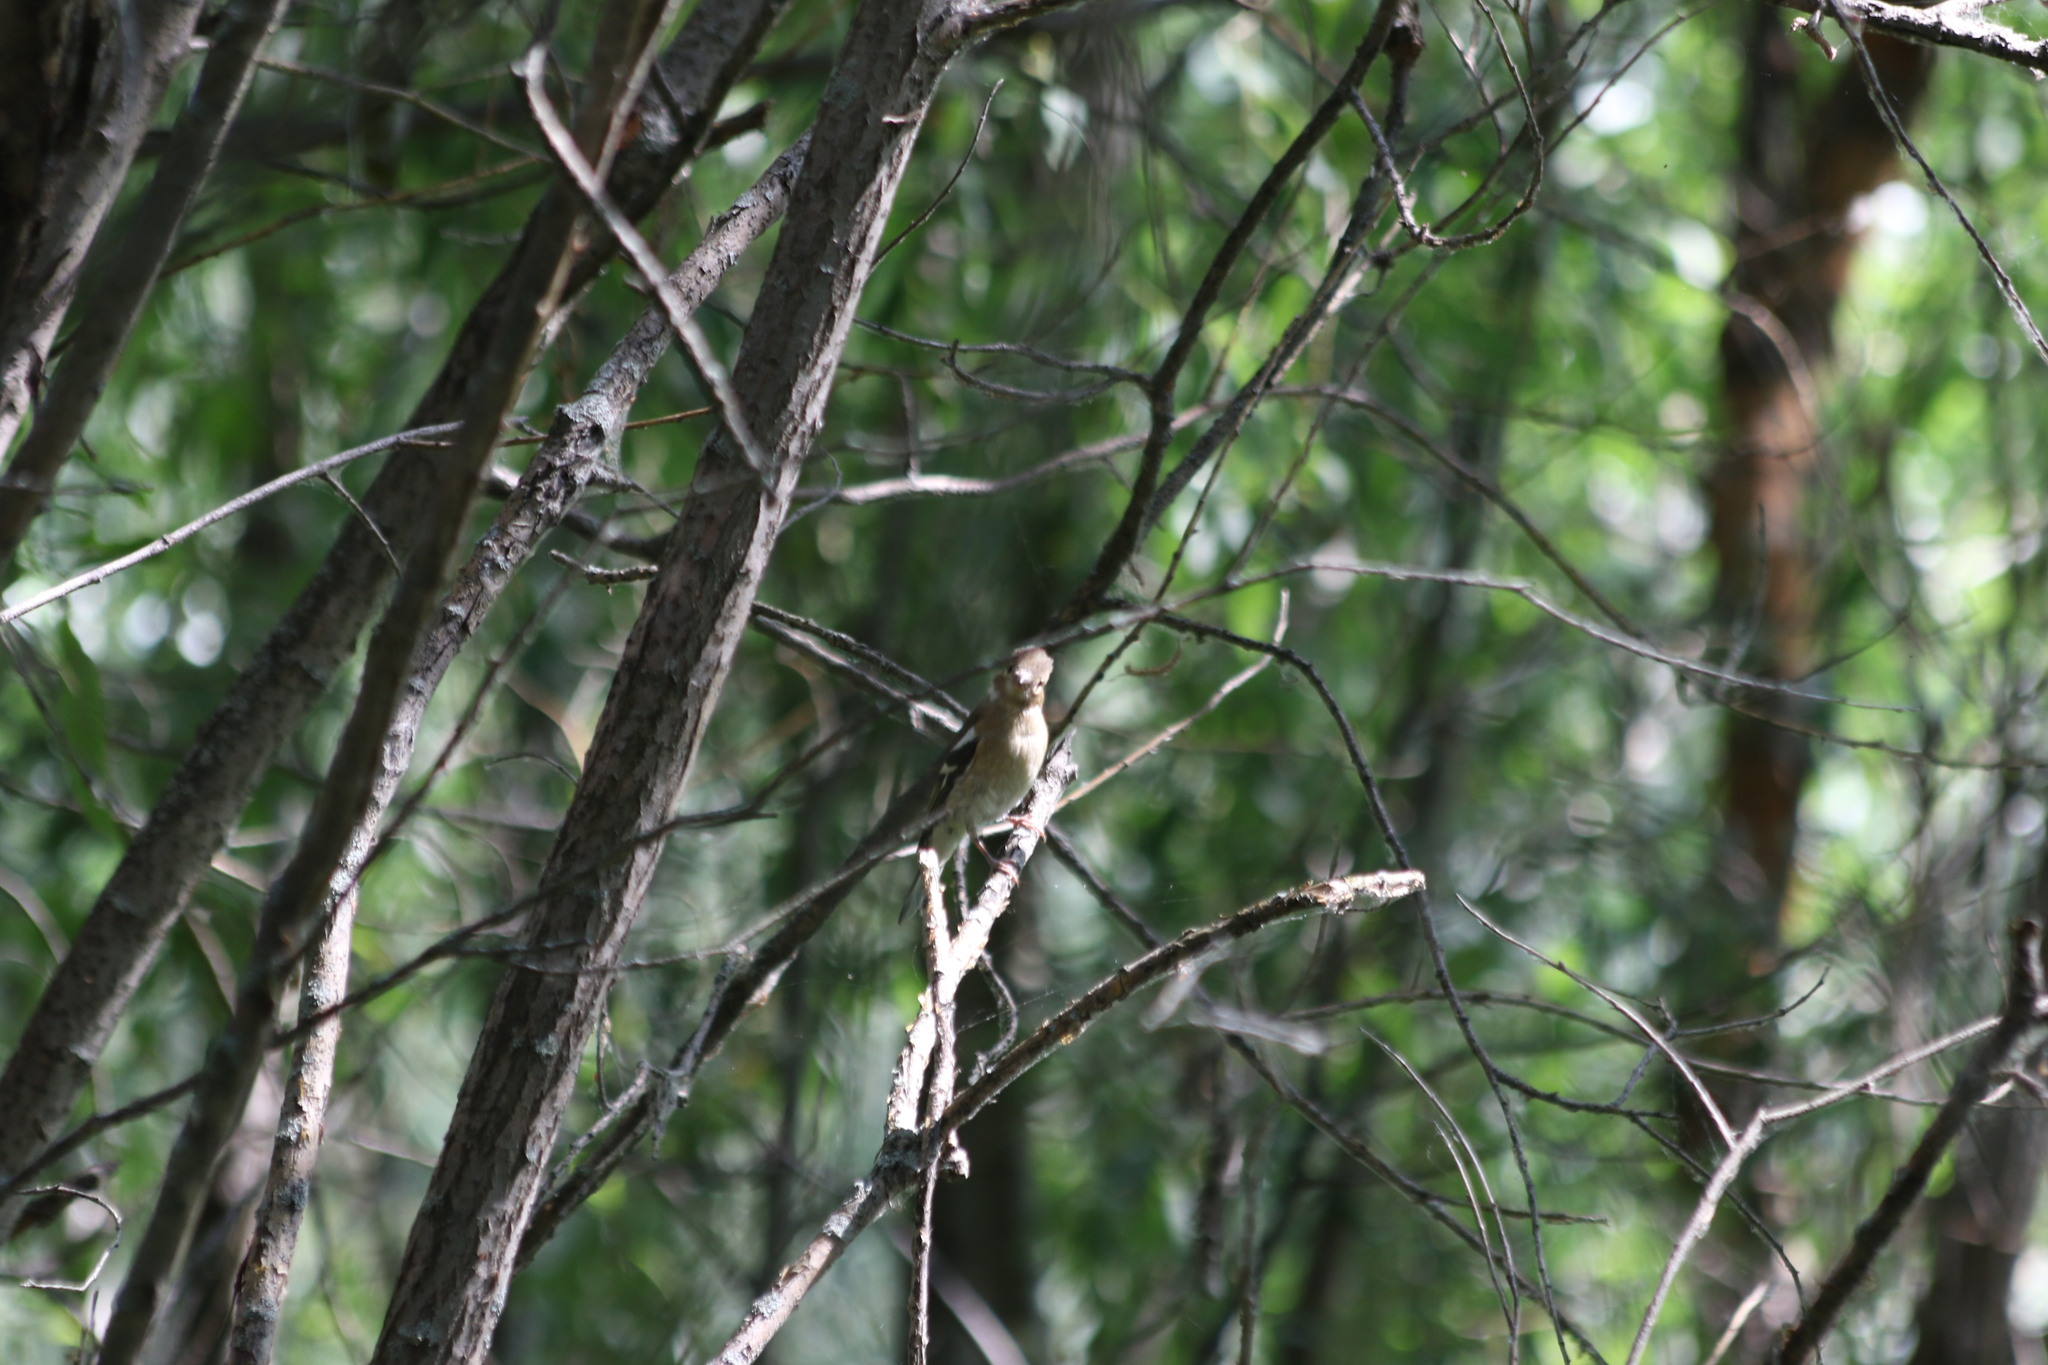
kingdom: Animalia
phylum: Chordata
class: Aves
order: Passeriformes
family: Fringillidae
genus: Fringilla
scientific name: Fringilla coelebs
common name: Common chaffinch
